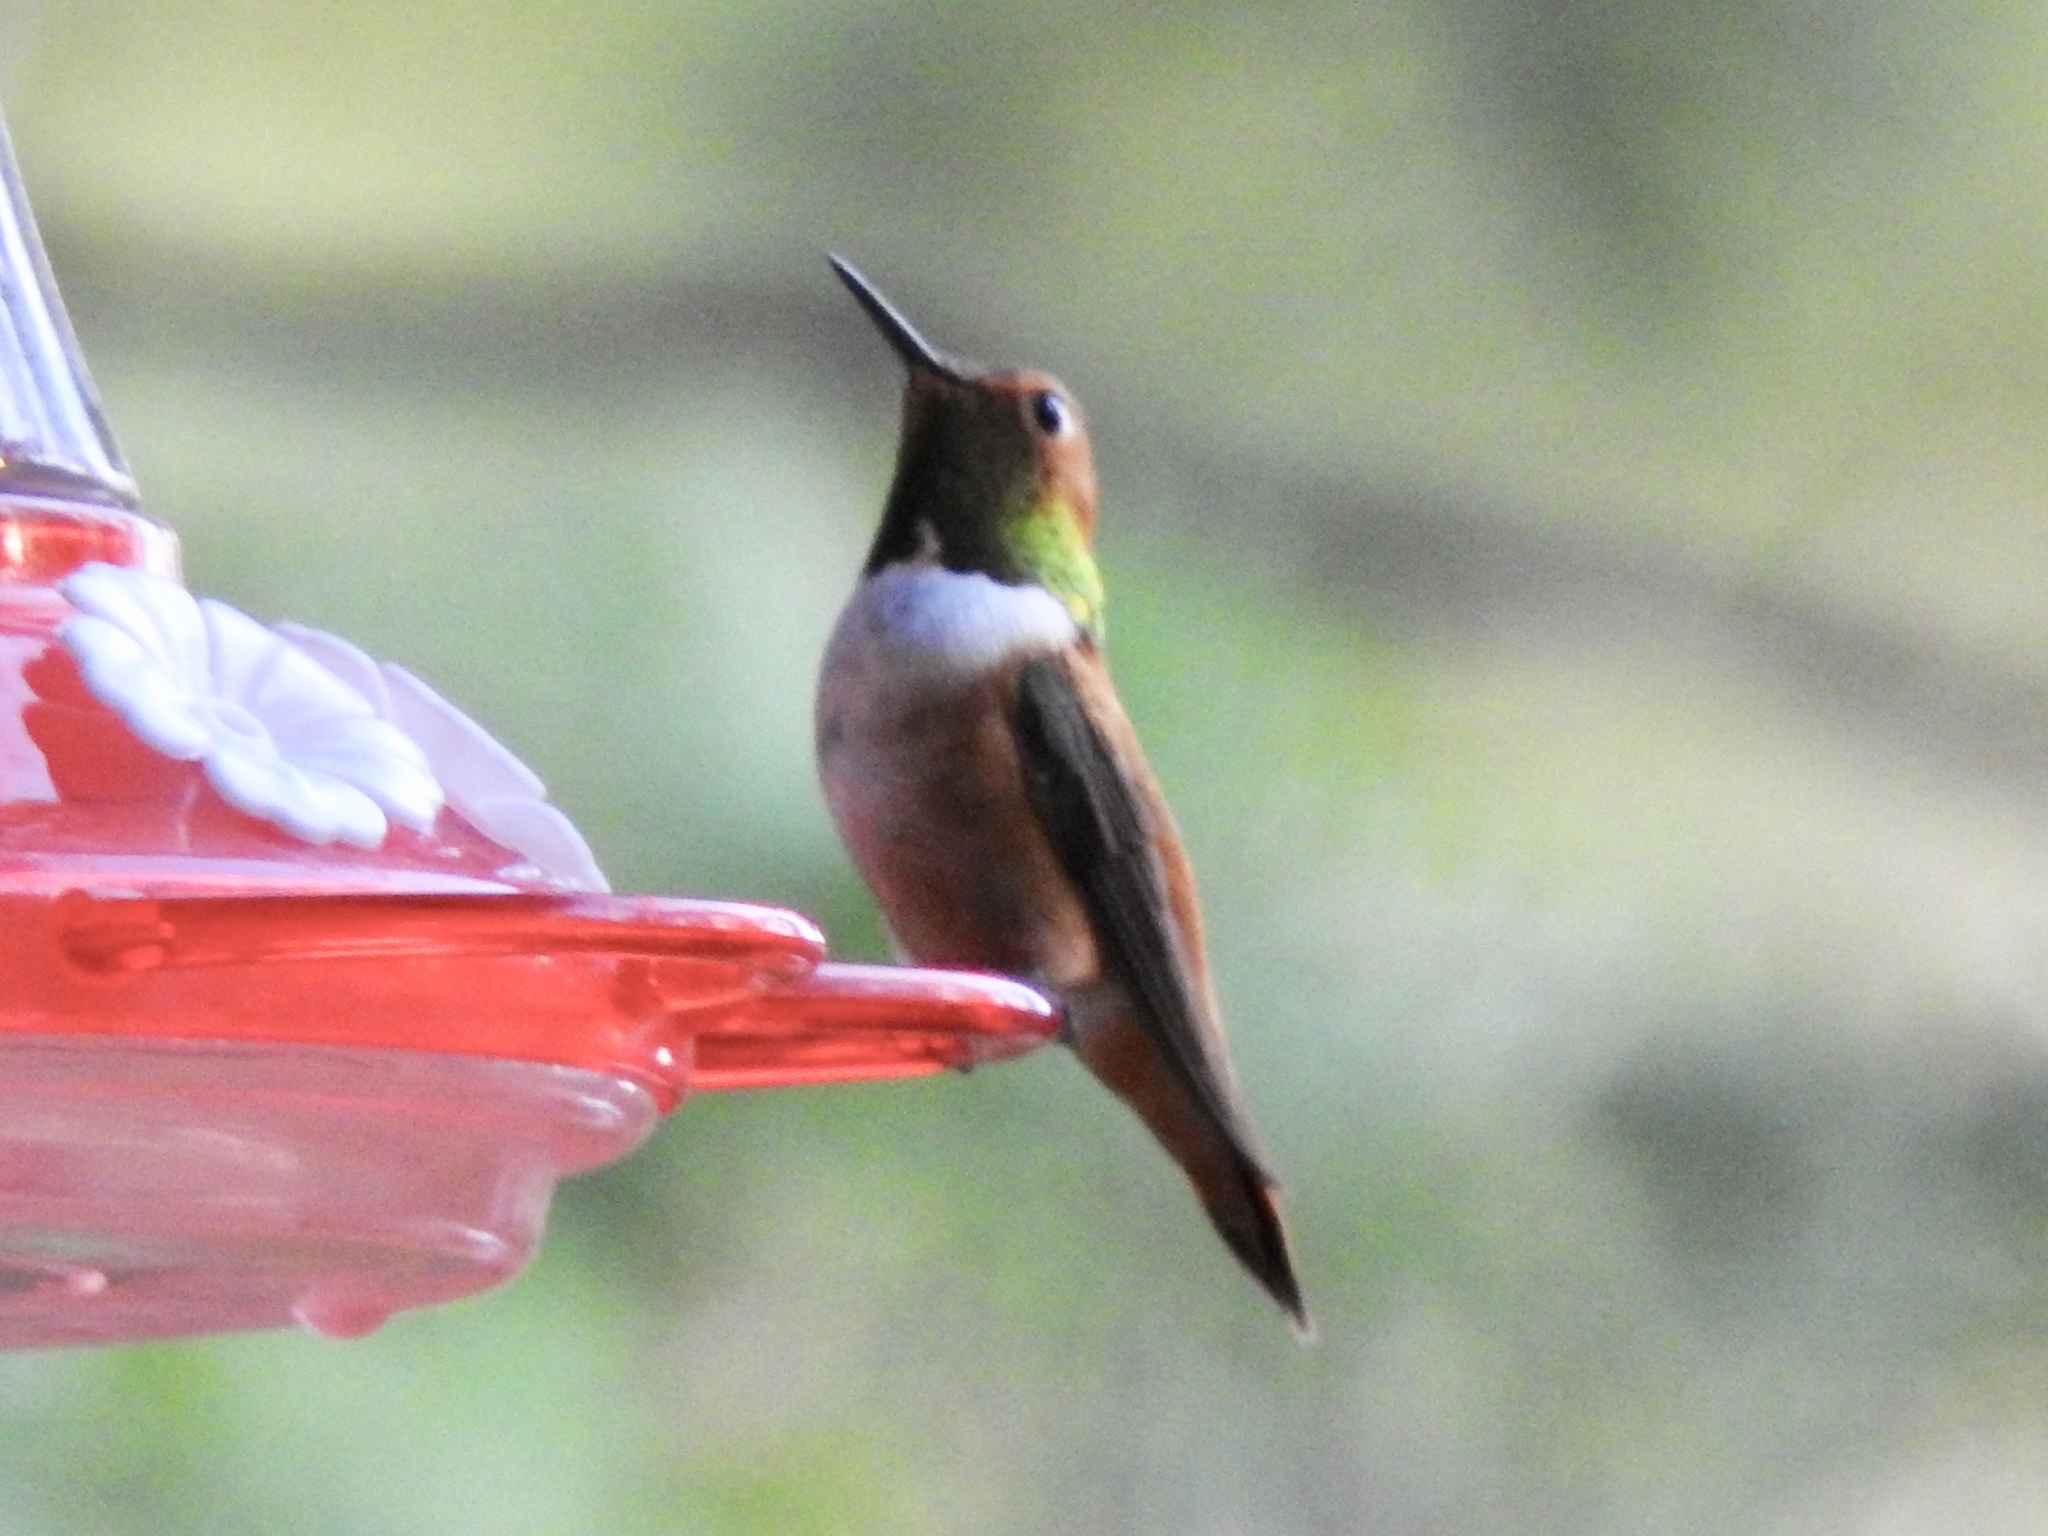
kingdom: Animalia
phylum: Chordata
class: Aves
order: Apodiformes
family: Trochilidae
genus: Selasphorus
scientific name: Selasphorus rufus
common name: Rufous hummingbird
